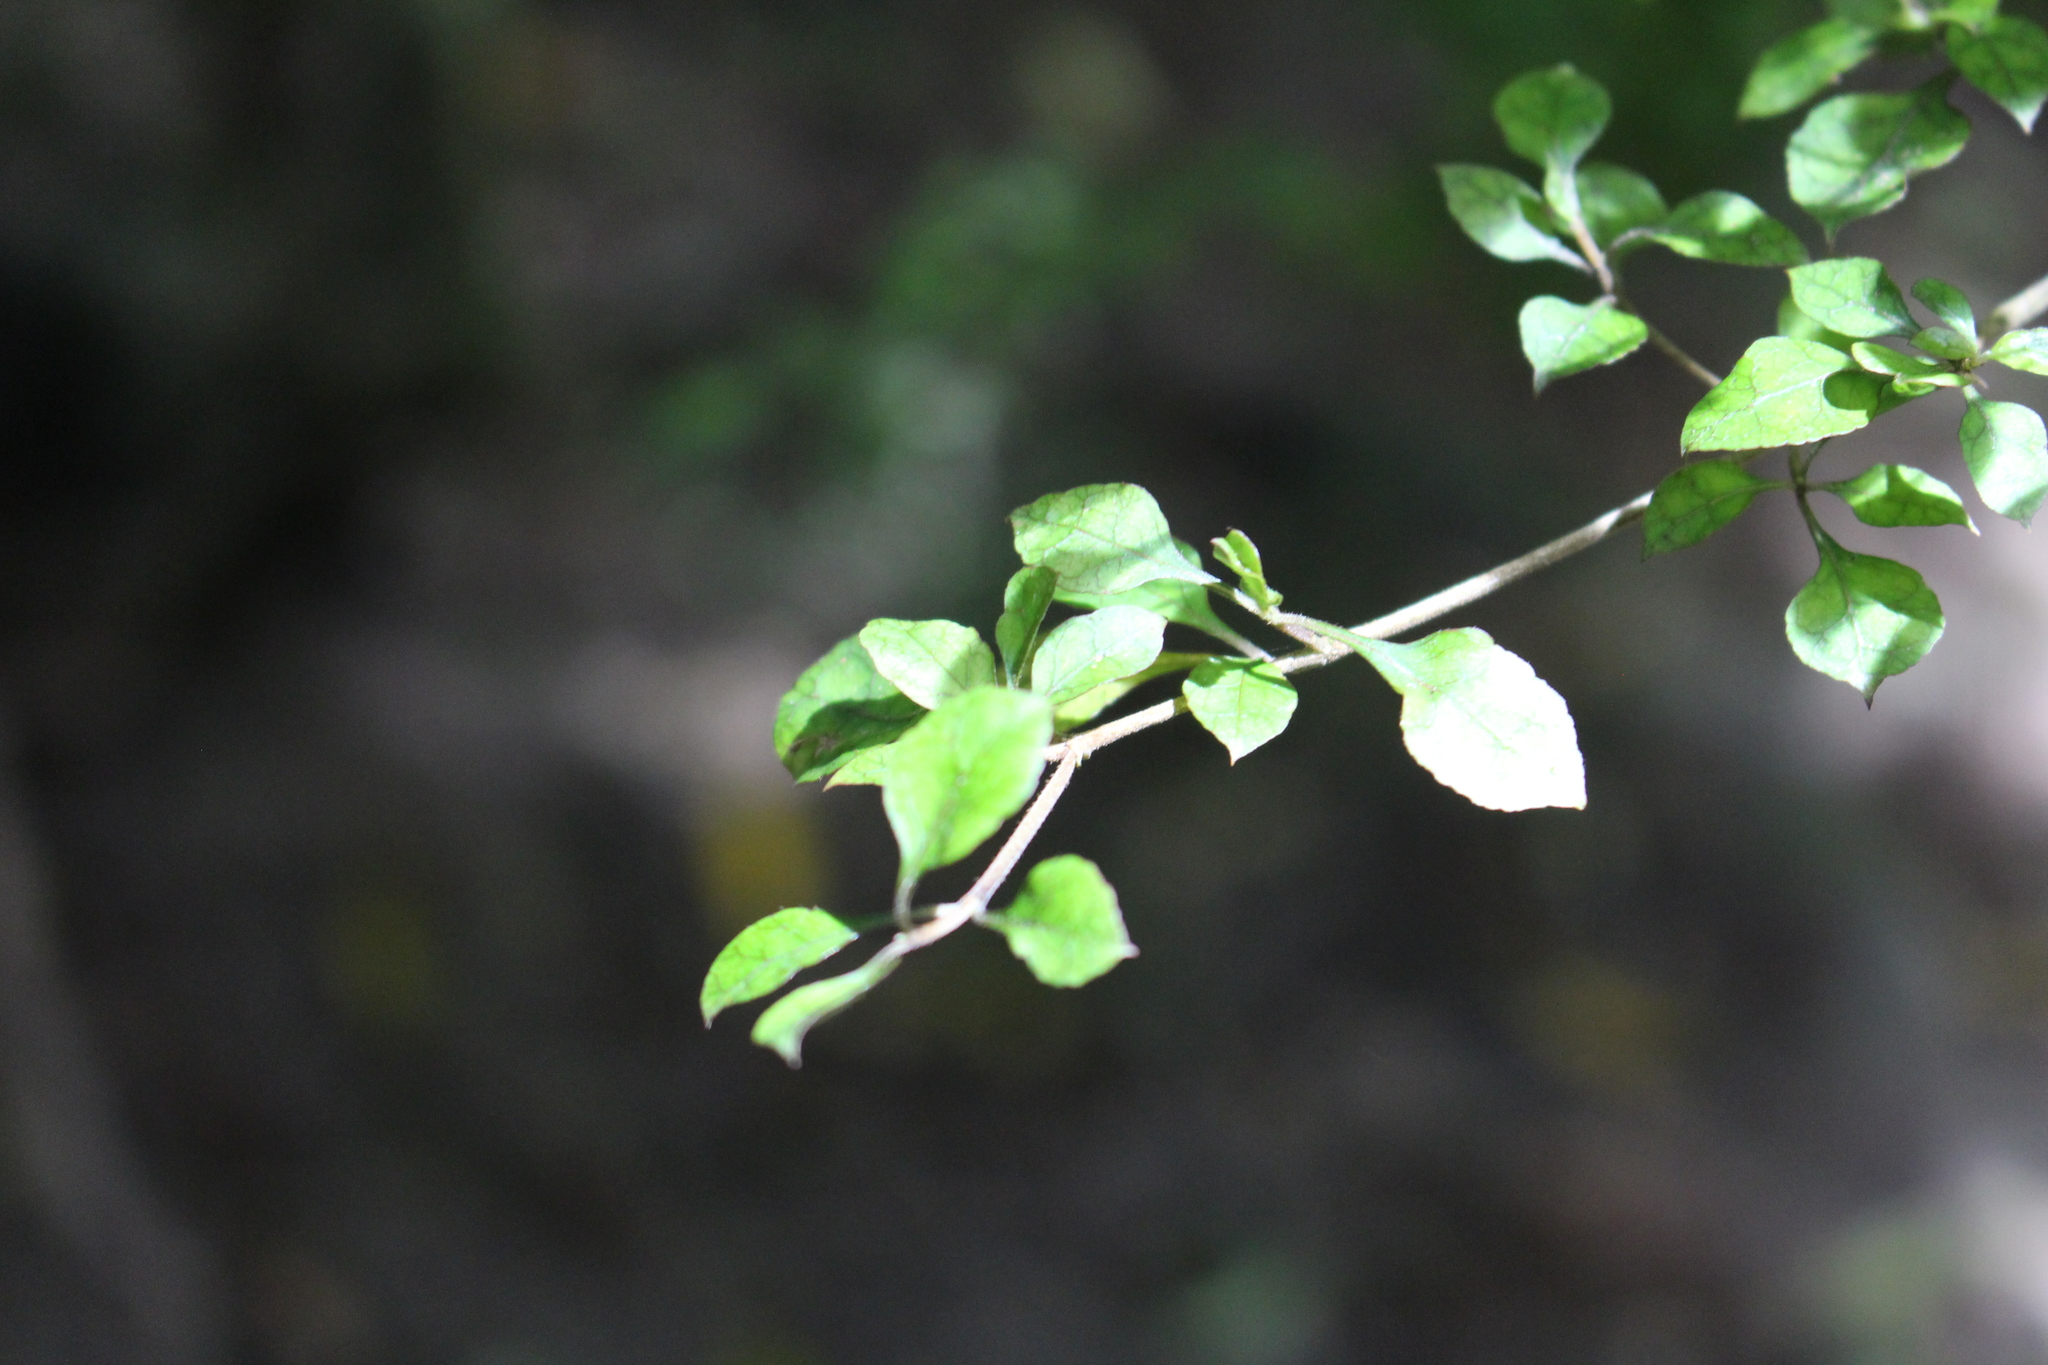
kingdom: Plantae
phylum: Tracheophyta
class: Magnoliopsida
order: Gentianales
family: Rubiaceae
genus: Coprosma
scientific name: Coprosma areolata
